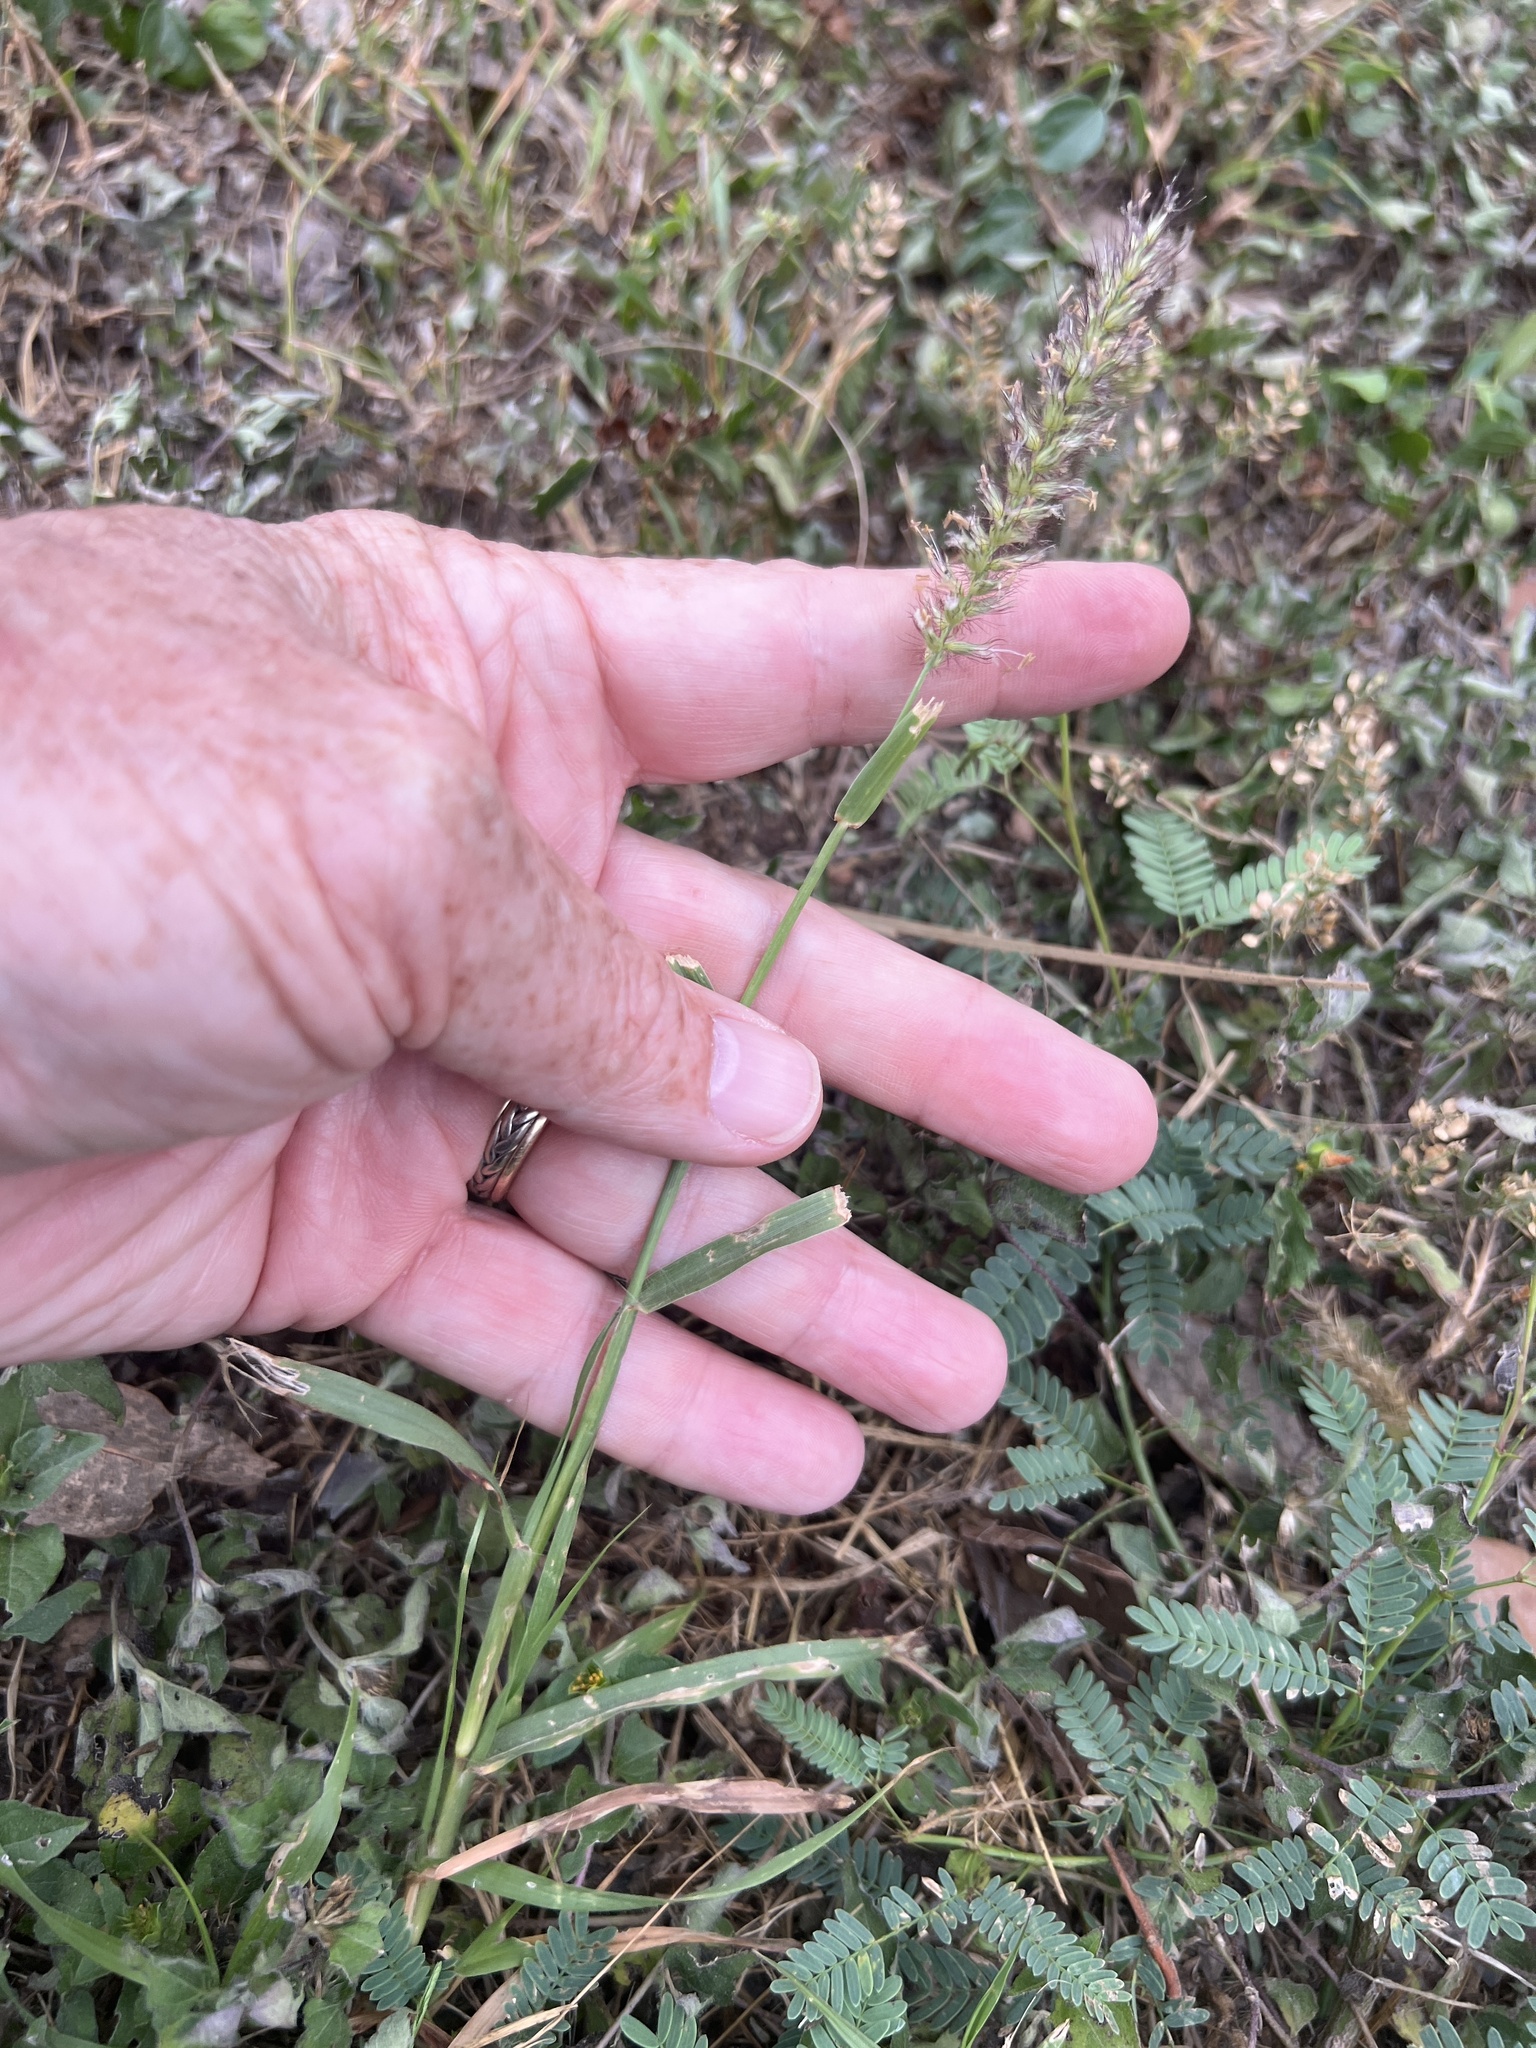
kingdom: Plantae
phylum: Tracheophyta
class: Liliopsida
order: Poales
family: Poaceae
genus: Cenchrus
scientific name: Cenchrus ciliaris
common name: Buffelgrass
